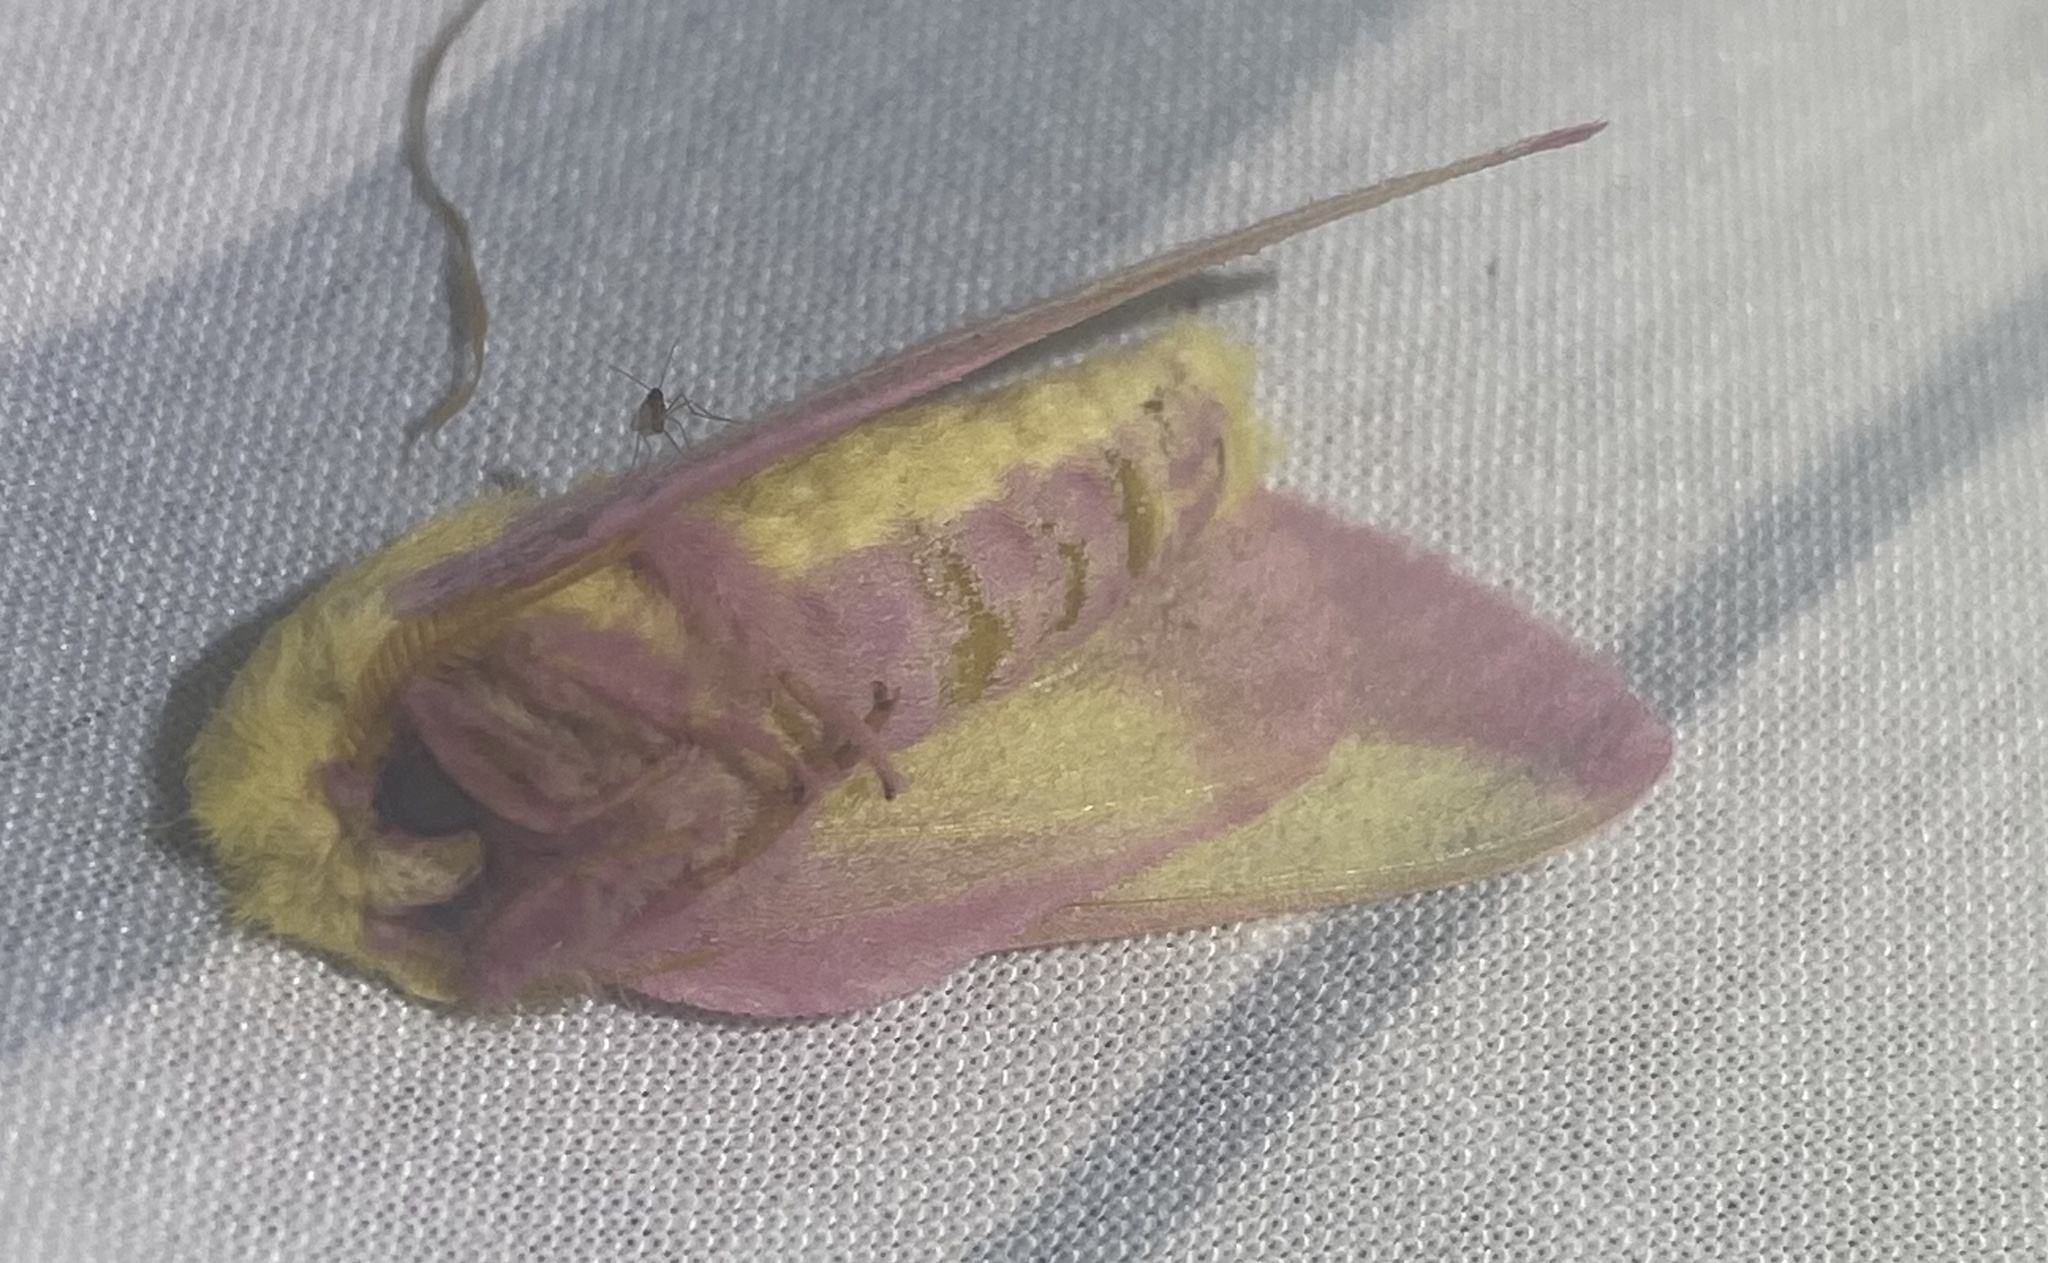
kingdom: Animalia
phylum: Arthropoda
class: Insecta
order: Lepidoptera
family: Saturniidae
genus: Dryocampa
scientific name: Dryocampa rubicunda
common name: Rosy maple moth
